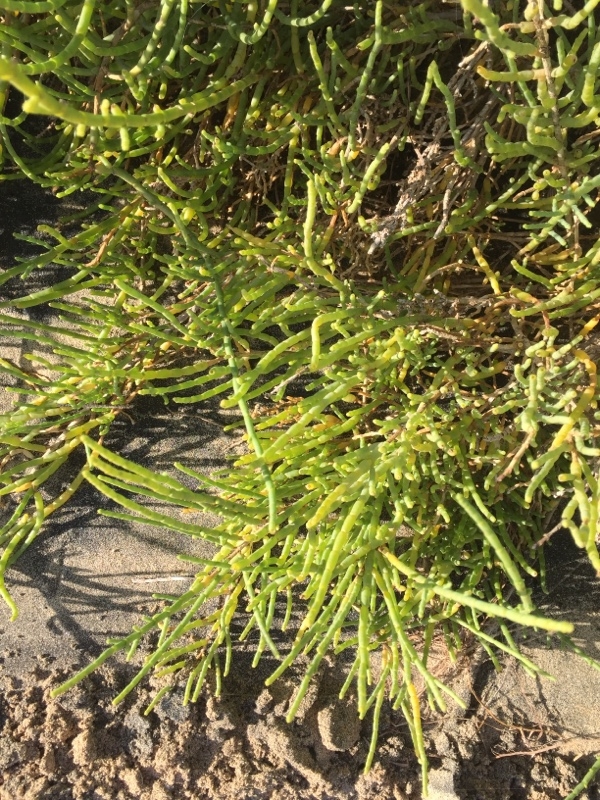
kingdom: Plantae
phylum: Tracheophyta
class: Magnoliopsida
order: Caryophyllales
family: Amaranthaceae
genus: Arthrocaulon
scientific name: Arthrocaulon macrostachyum
